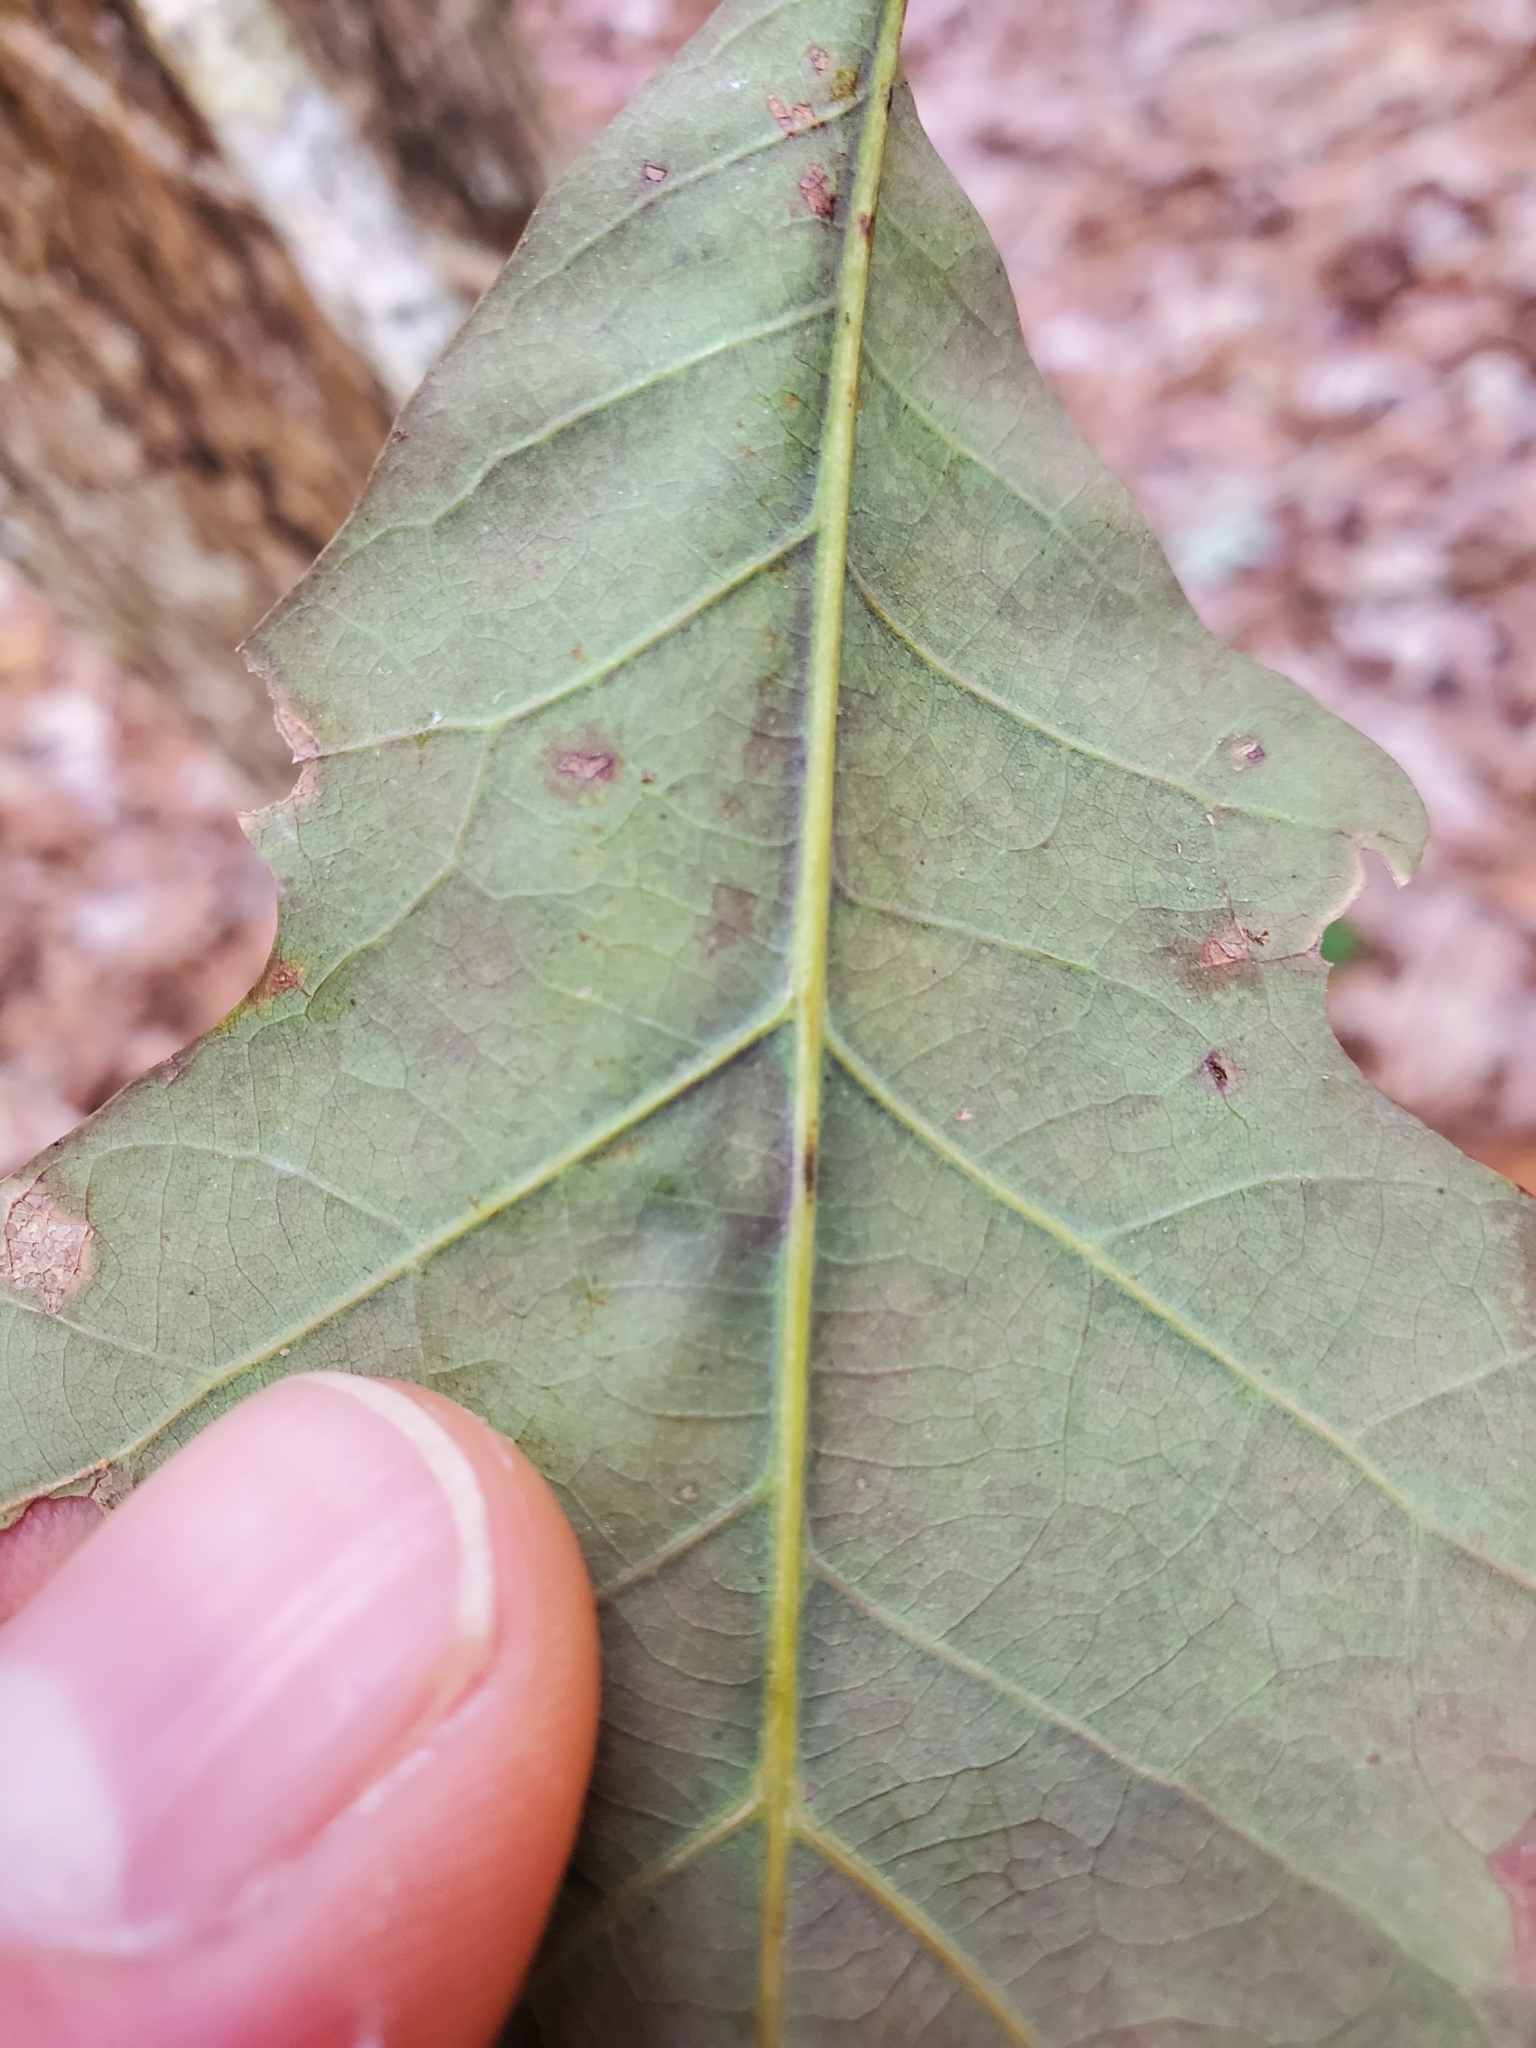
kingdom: Animalia
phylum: Arthropoda
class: Insecta
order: Hymenoptera
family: Cynipidae
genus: Andricus
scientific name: Andricus quercusflocci
